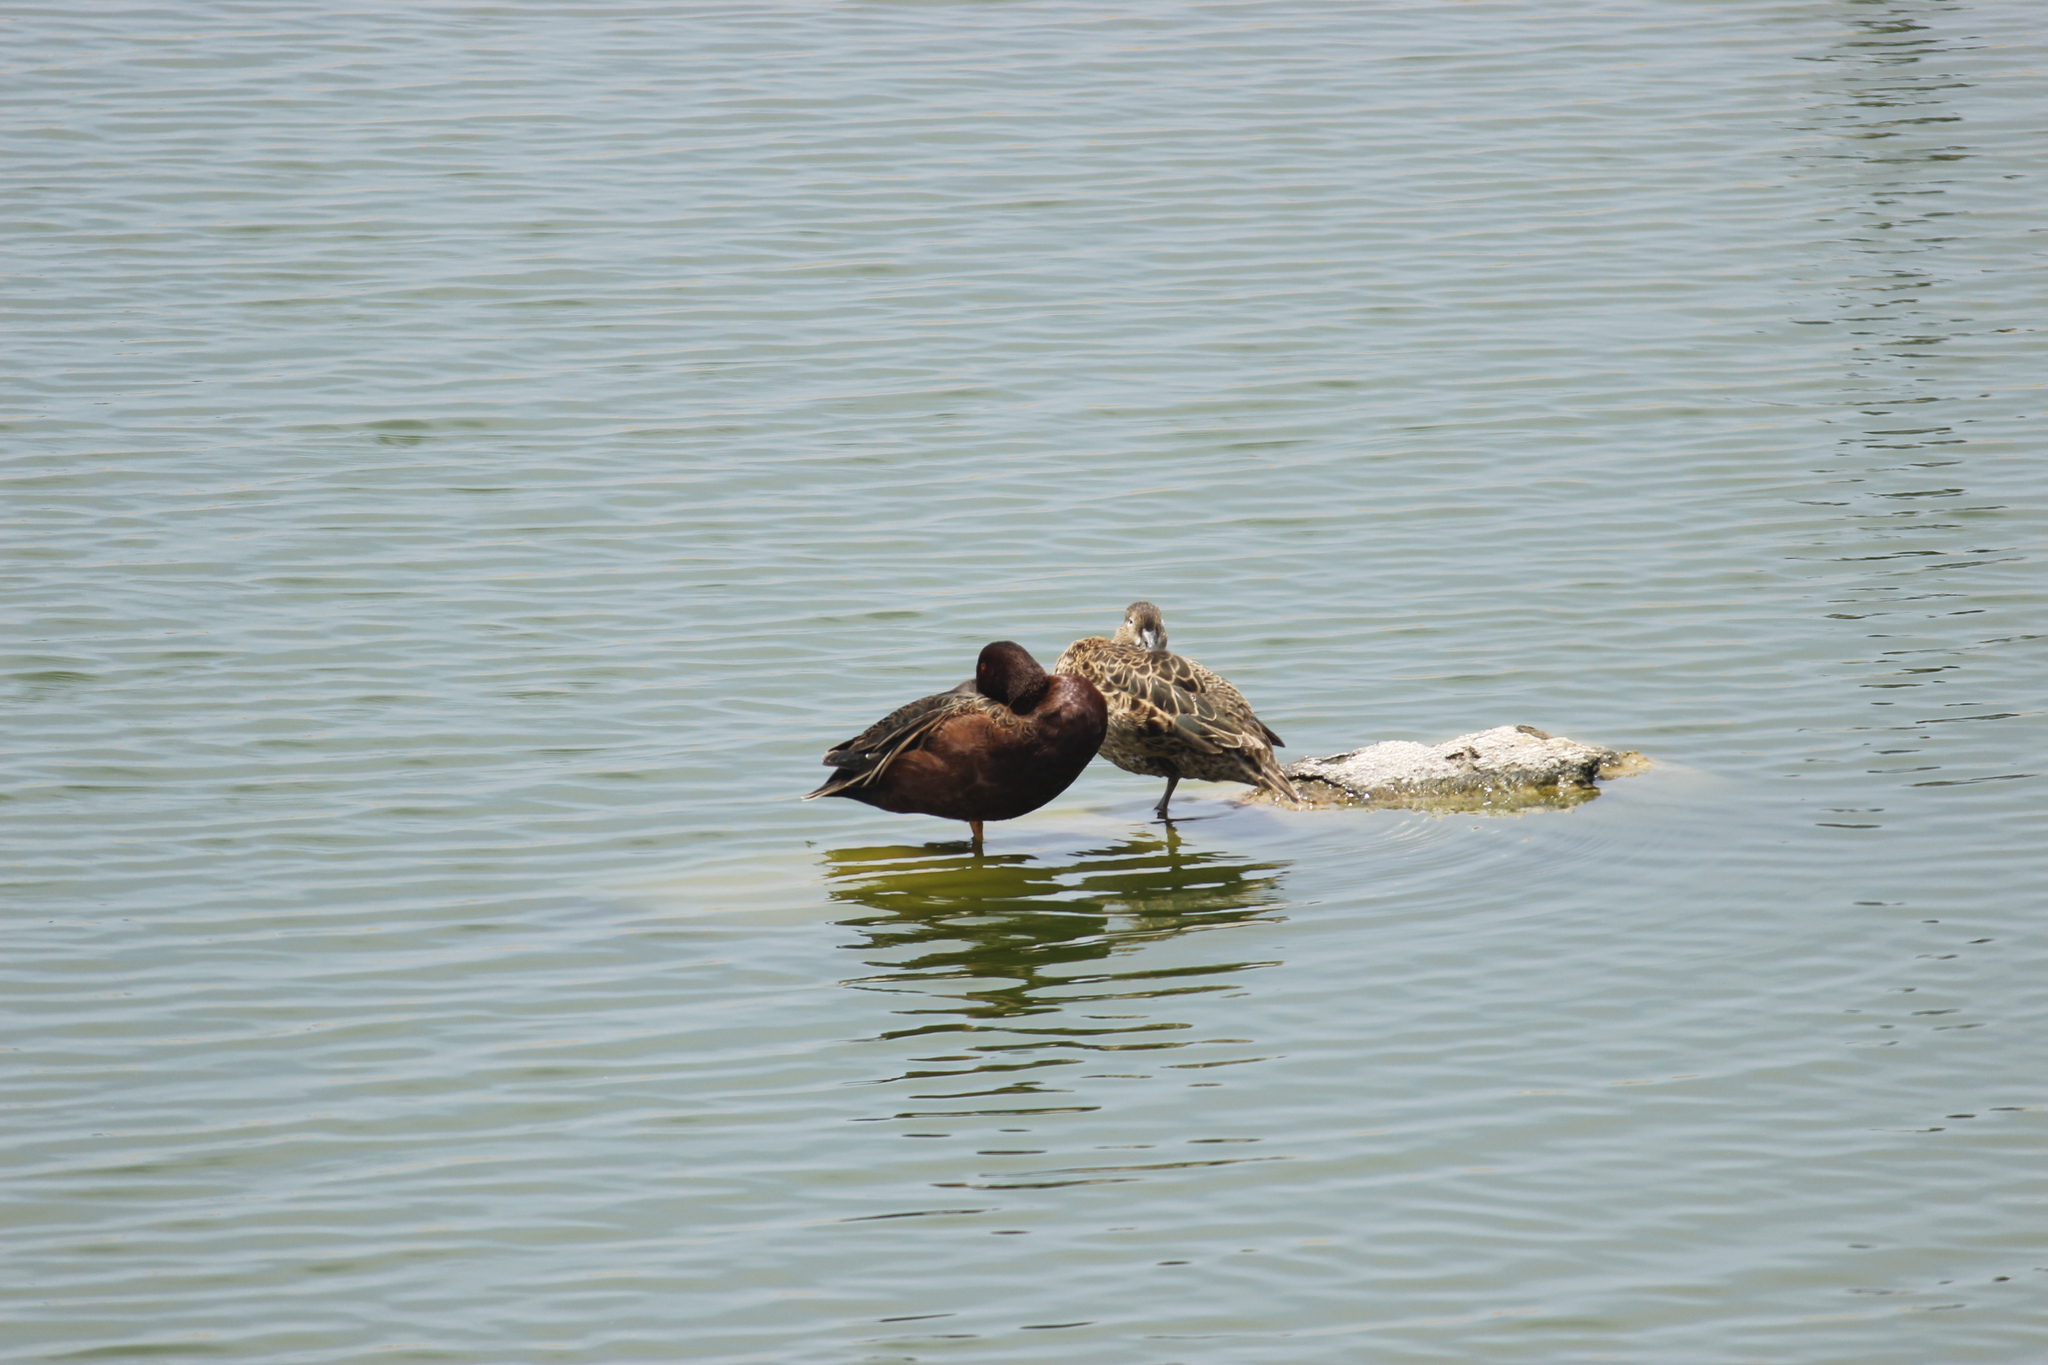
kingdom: Animalia
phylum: Chordata
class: Aves
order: Anseriformes
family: Anatidae
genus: Spatula
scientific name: Spatula cyanoptera
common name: Cinnamon teal
